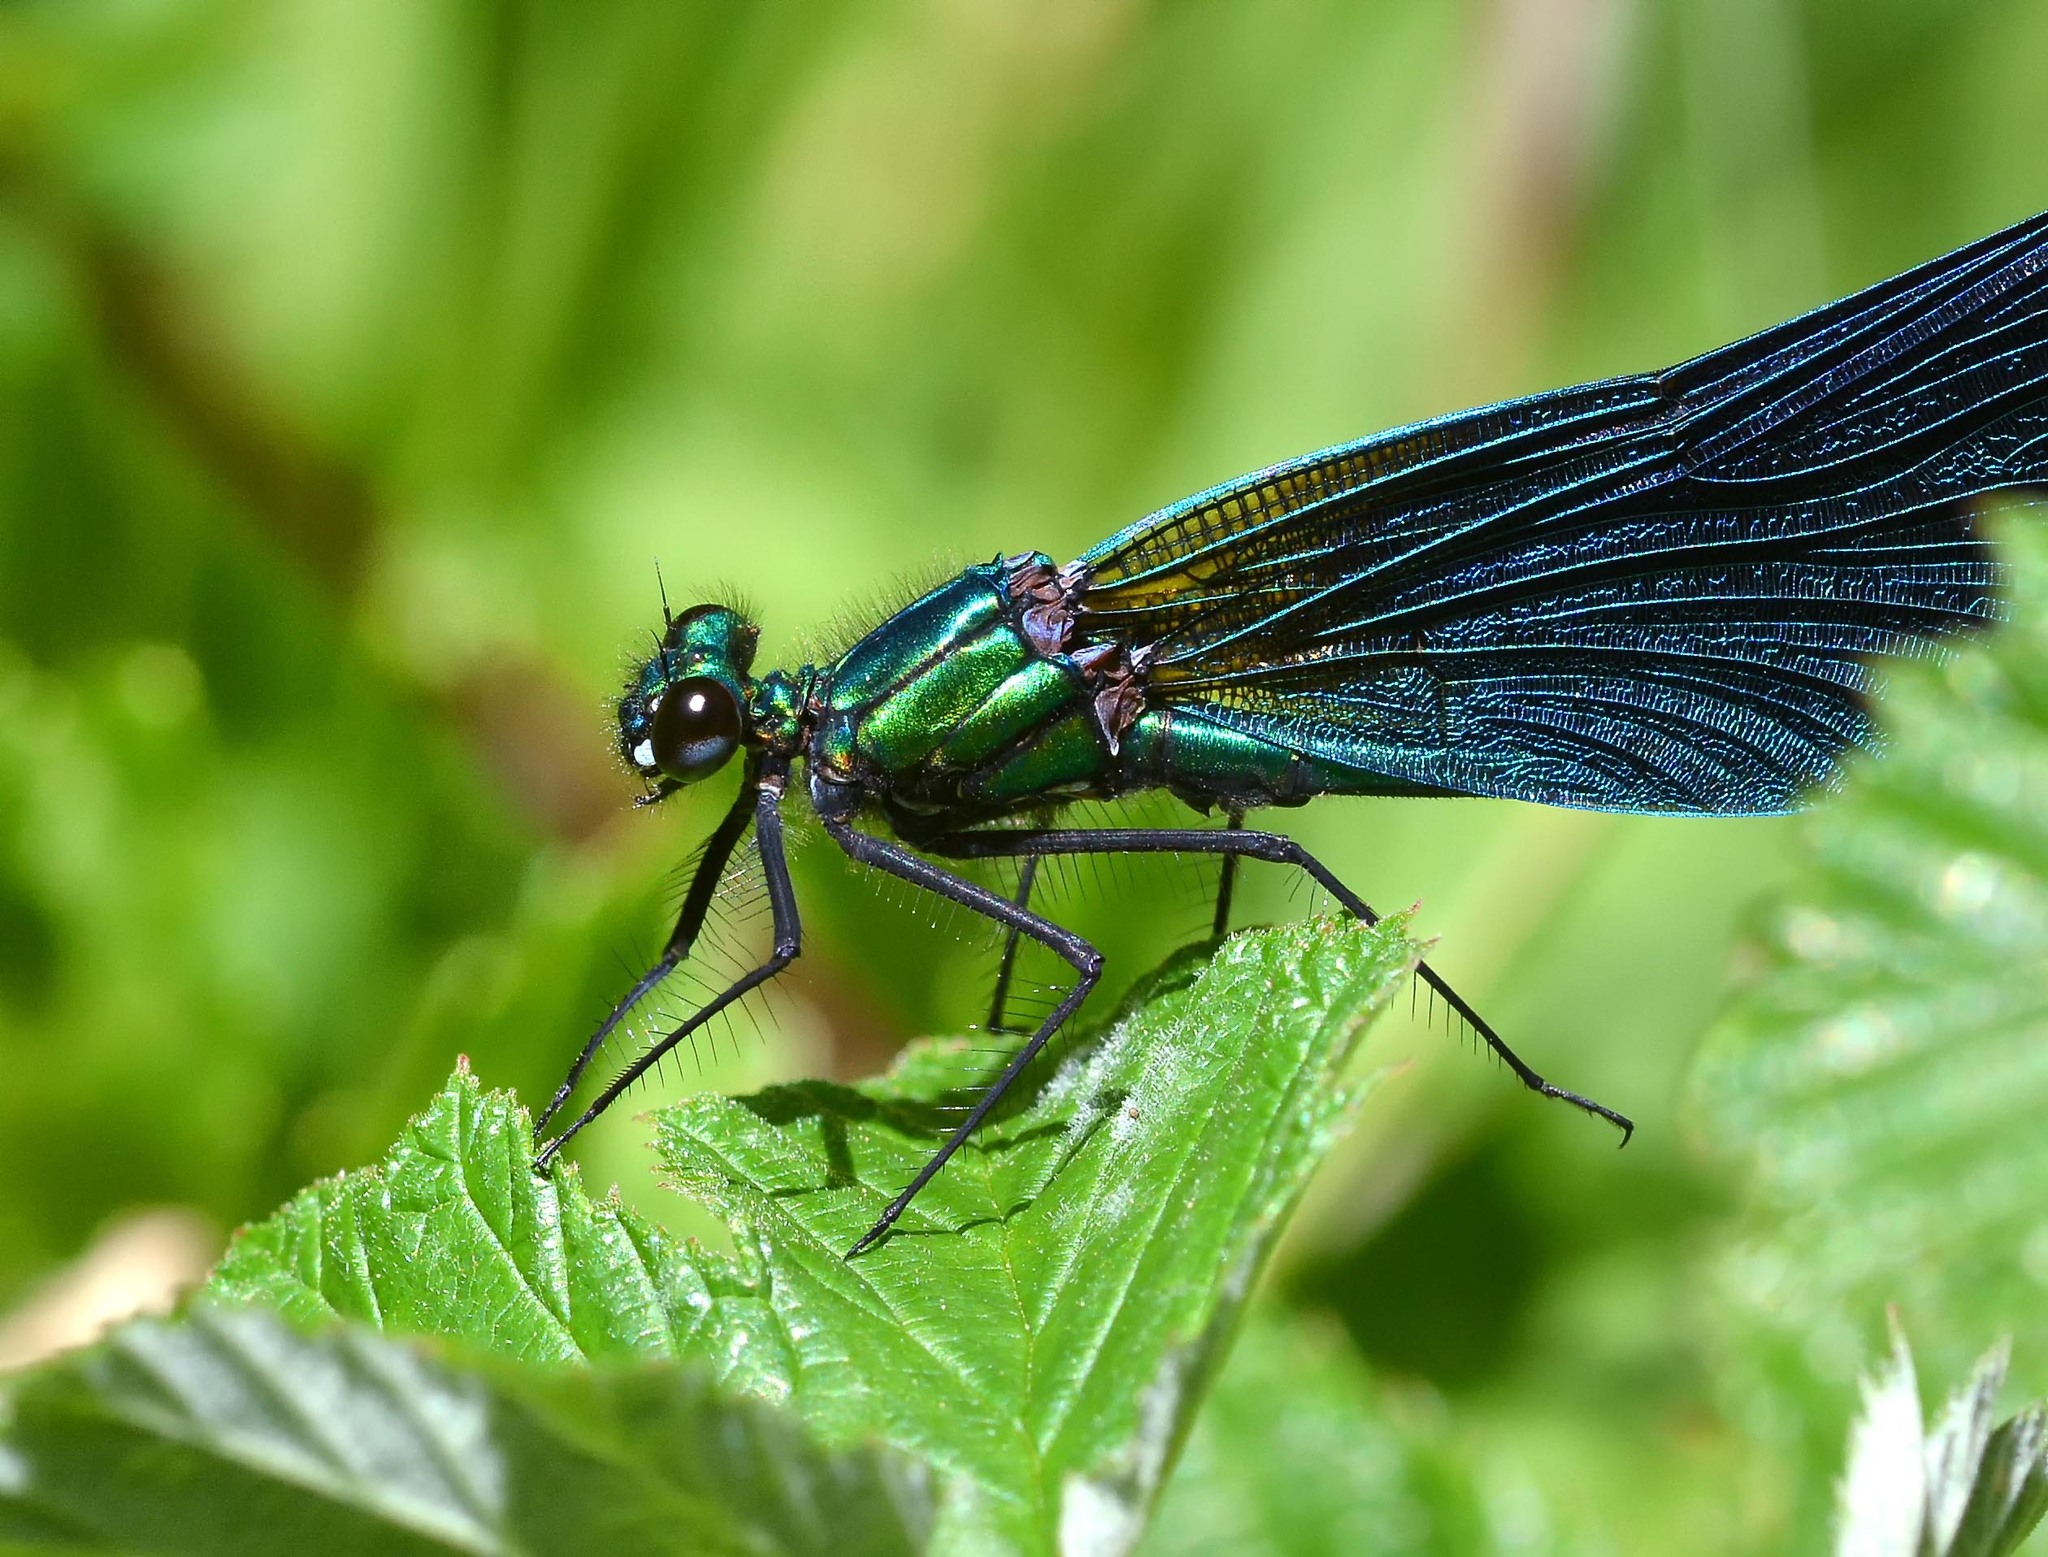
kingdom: Animalia
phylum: Arthropoda
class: Insecta
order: Odonata
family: Calopterygidae
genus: Calopteryx
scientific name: Calopteryx virgo
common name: Beautiful demoiselle
